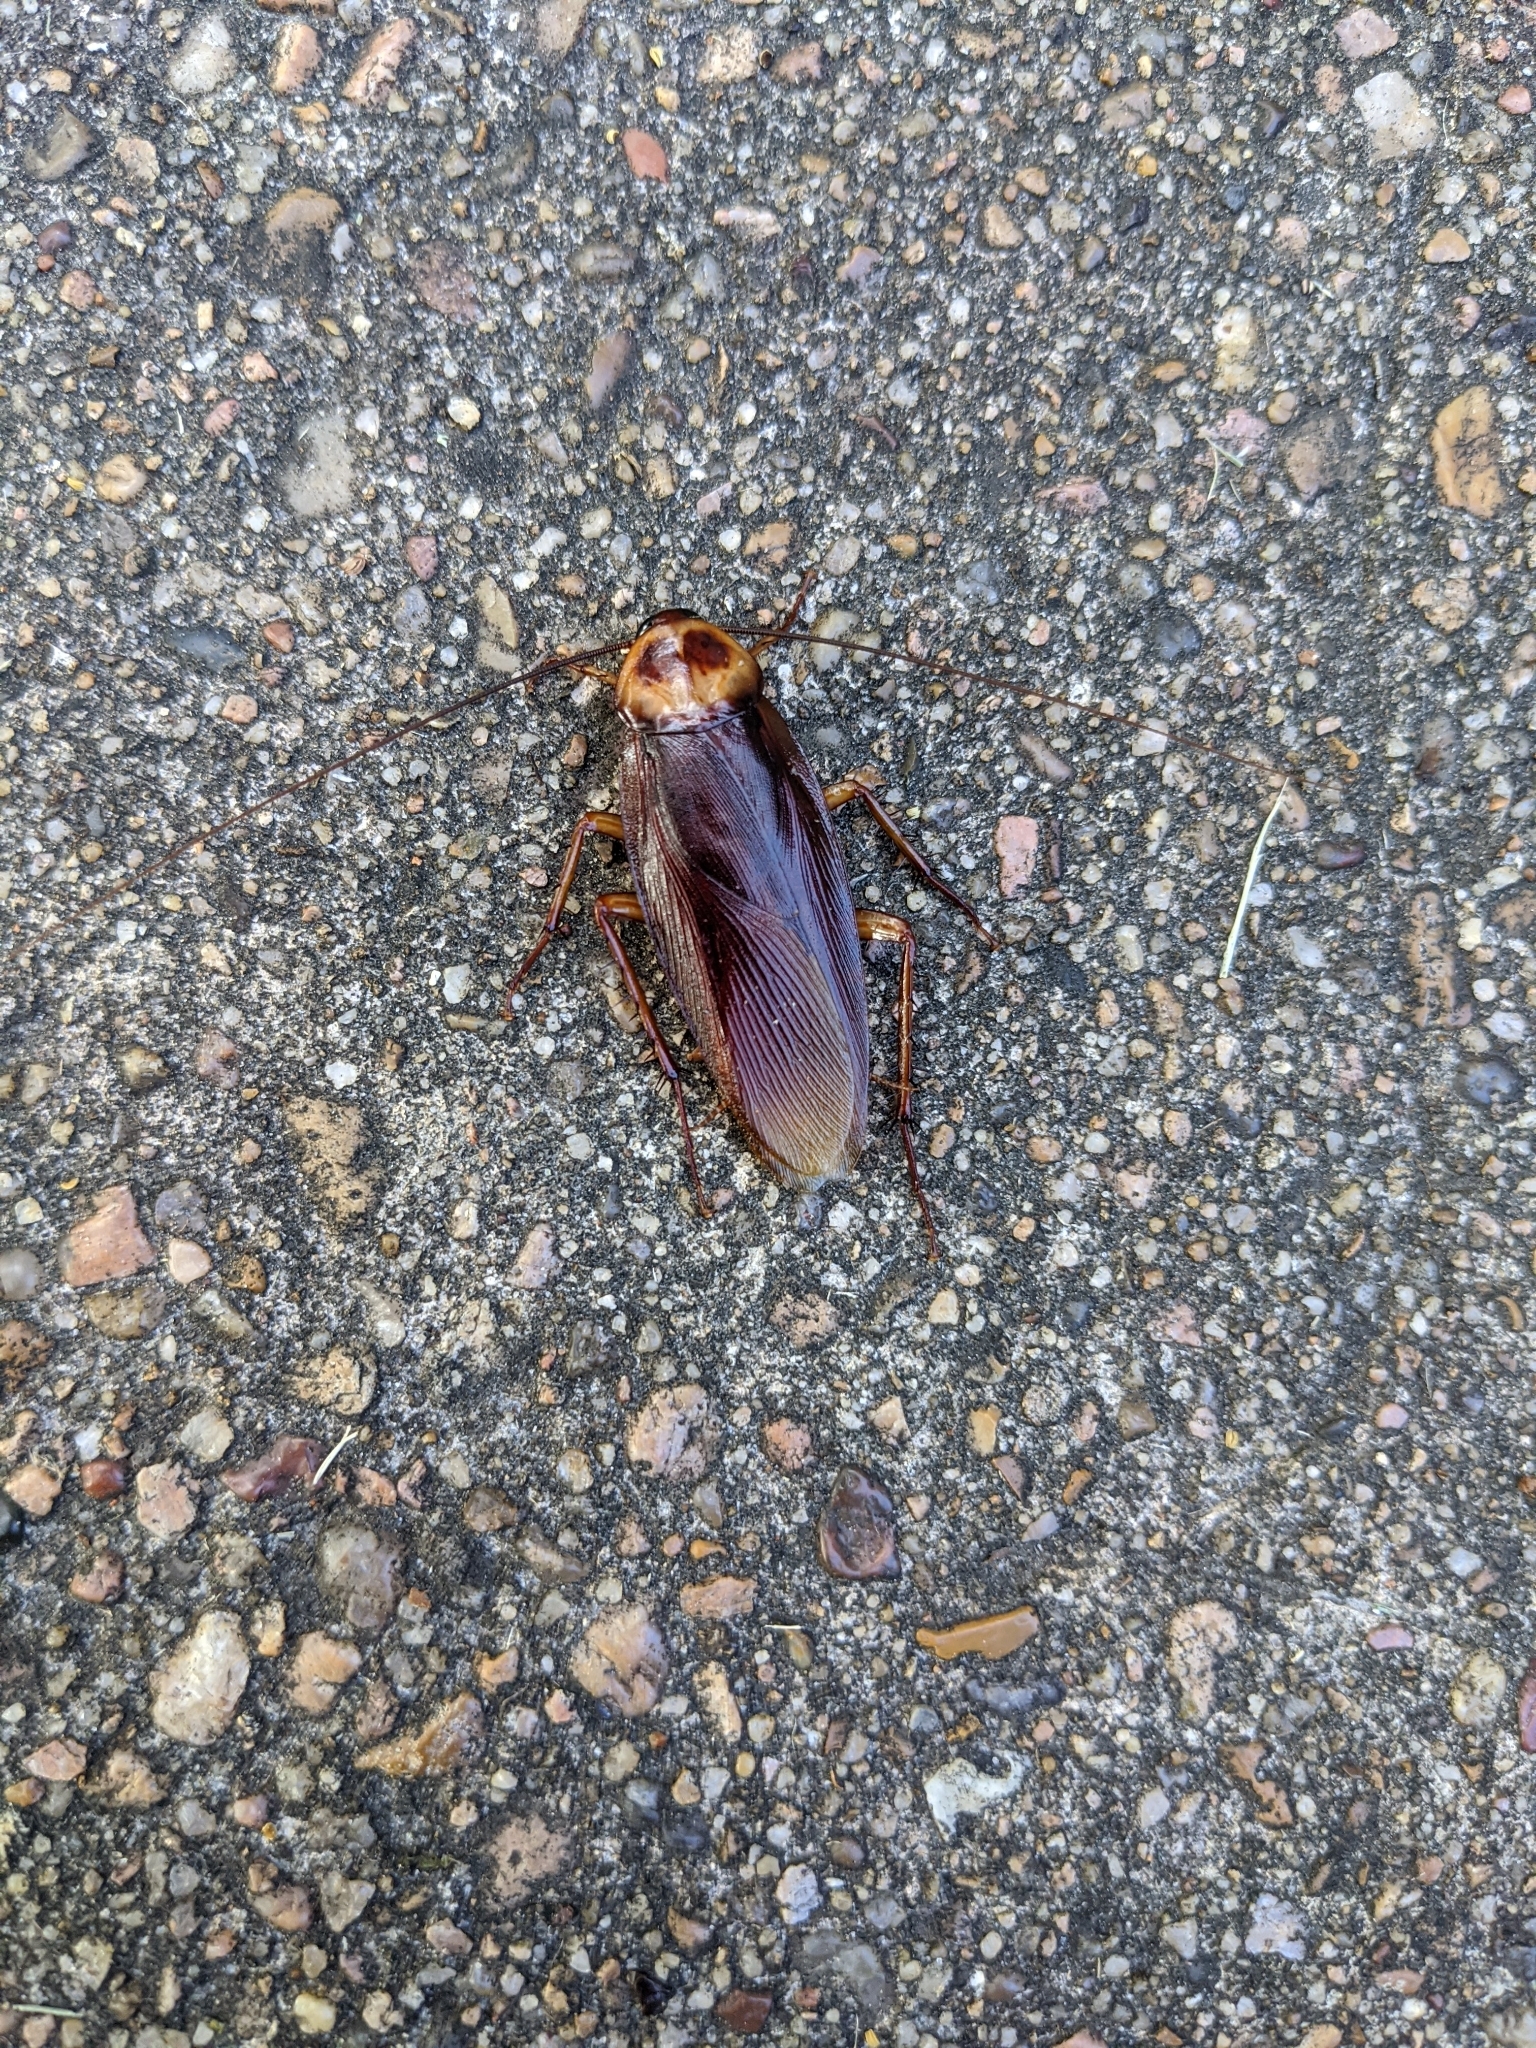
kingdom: Animalia
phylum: Arthropoda
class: Insecta
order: Blattodea
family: Blattidae
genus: Periplaneta
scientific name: Periplaneta americana
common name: American cockroach
